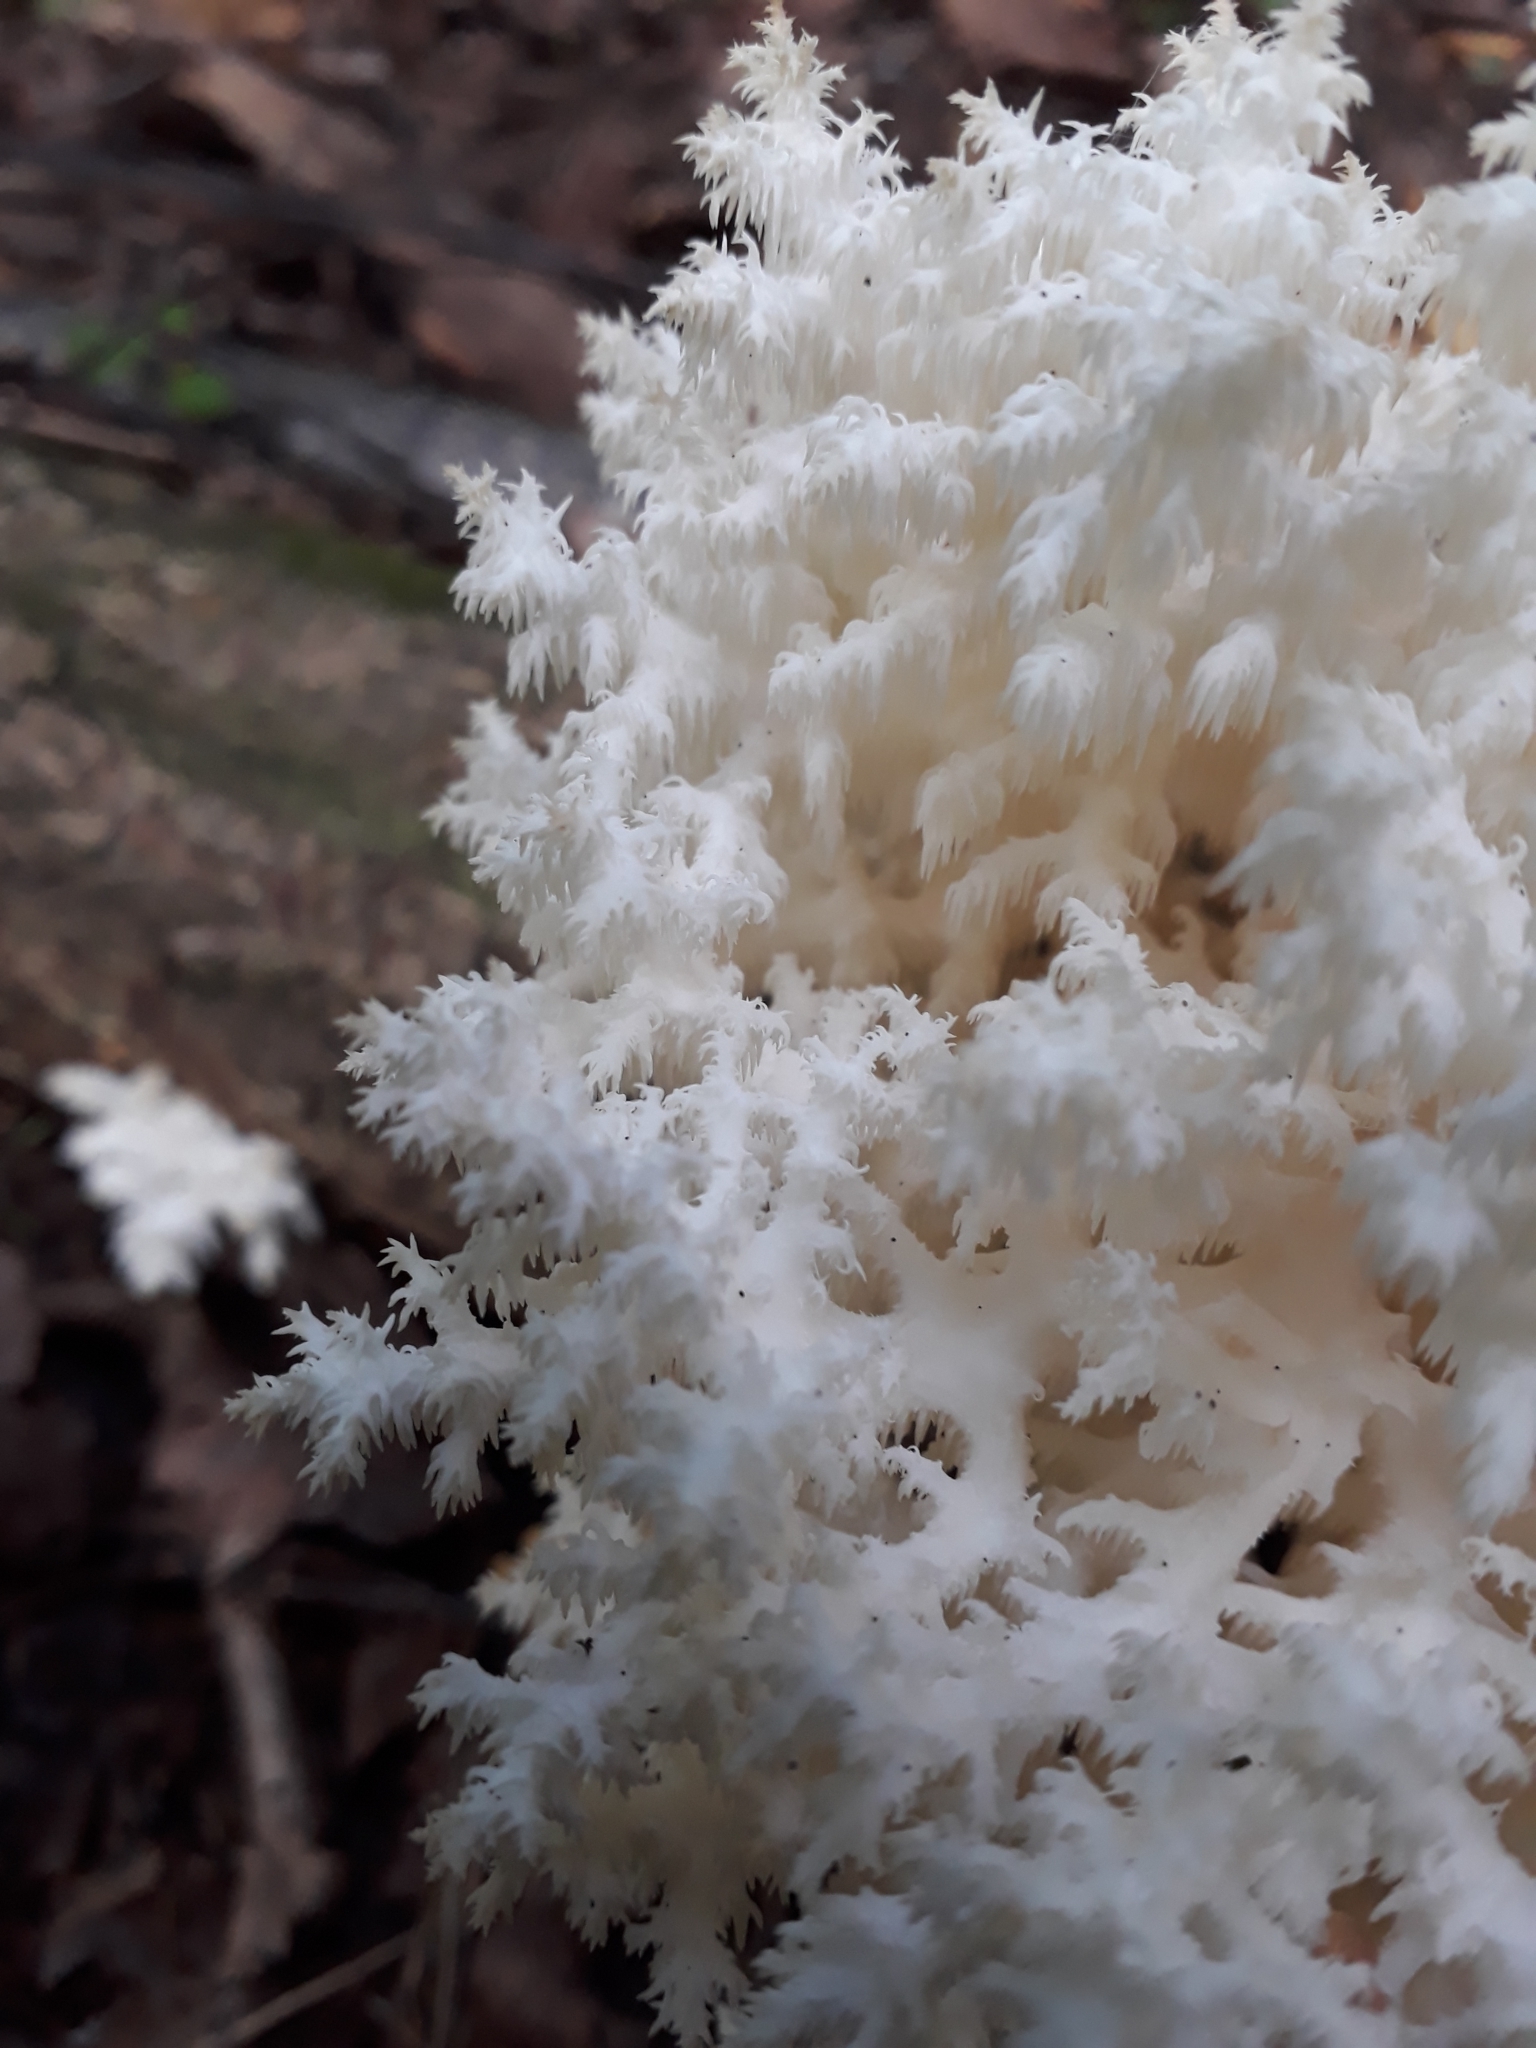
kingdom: Fungi
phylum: Basidiomycota
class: Agaricomycetes
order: Russulales
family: Hericiaceae
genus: Hericium
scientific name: Hericium coralloides
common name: Coral tooth
